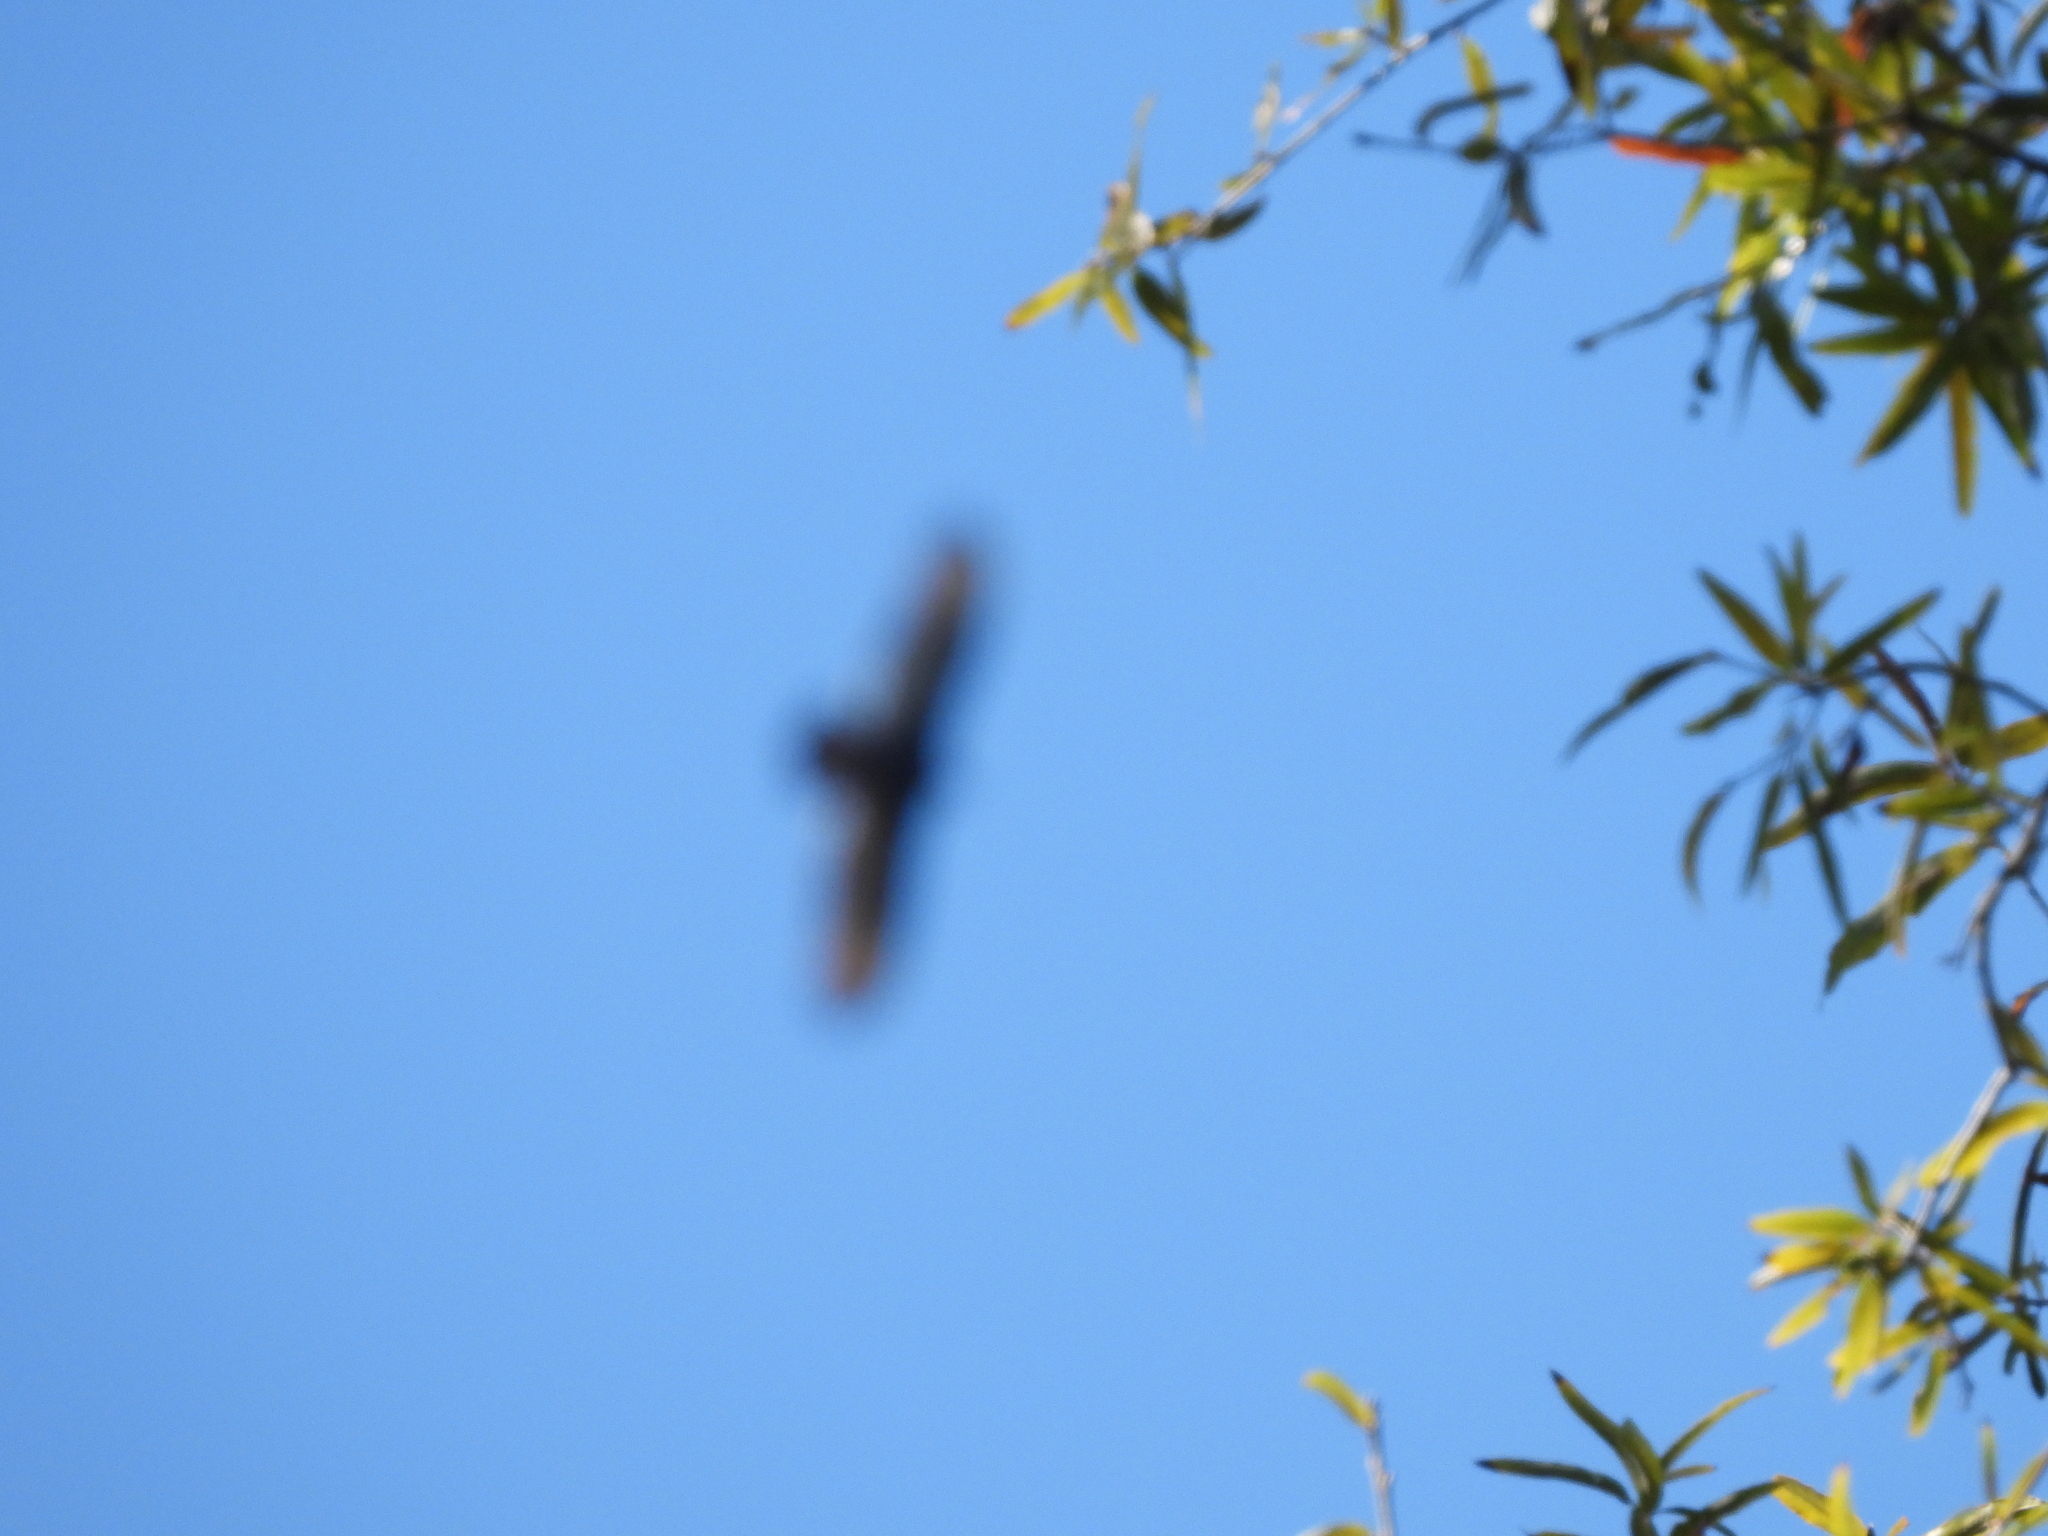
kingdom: Animalia
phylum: Chordata
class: Aves
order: Accipitriformes
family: Cathartidae
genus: Cathartes
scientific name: Cathartes aura
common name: Turkey vulture
